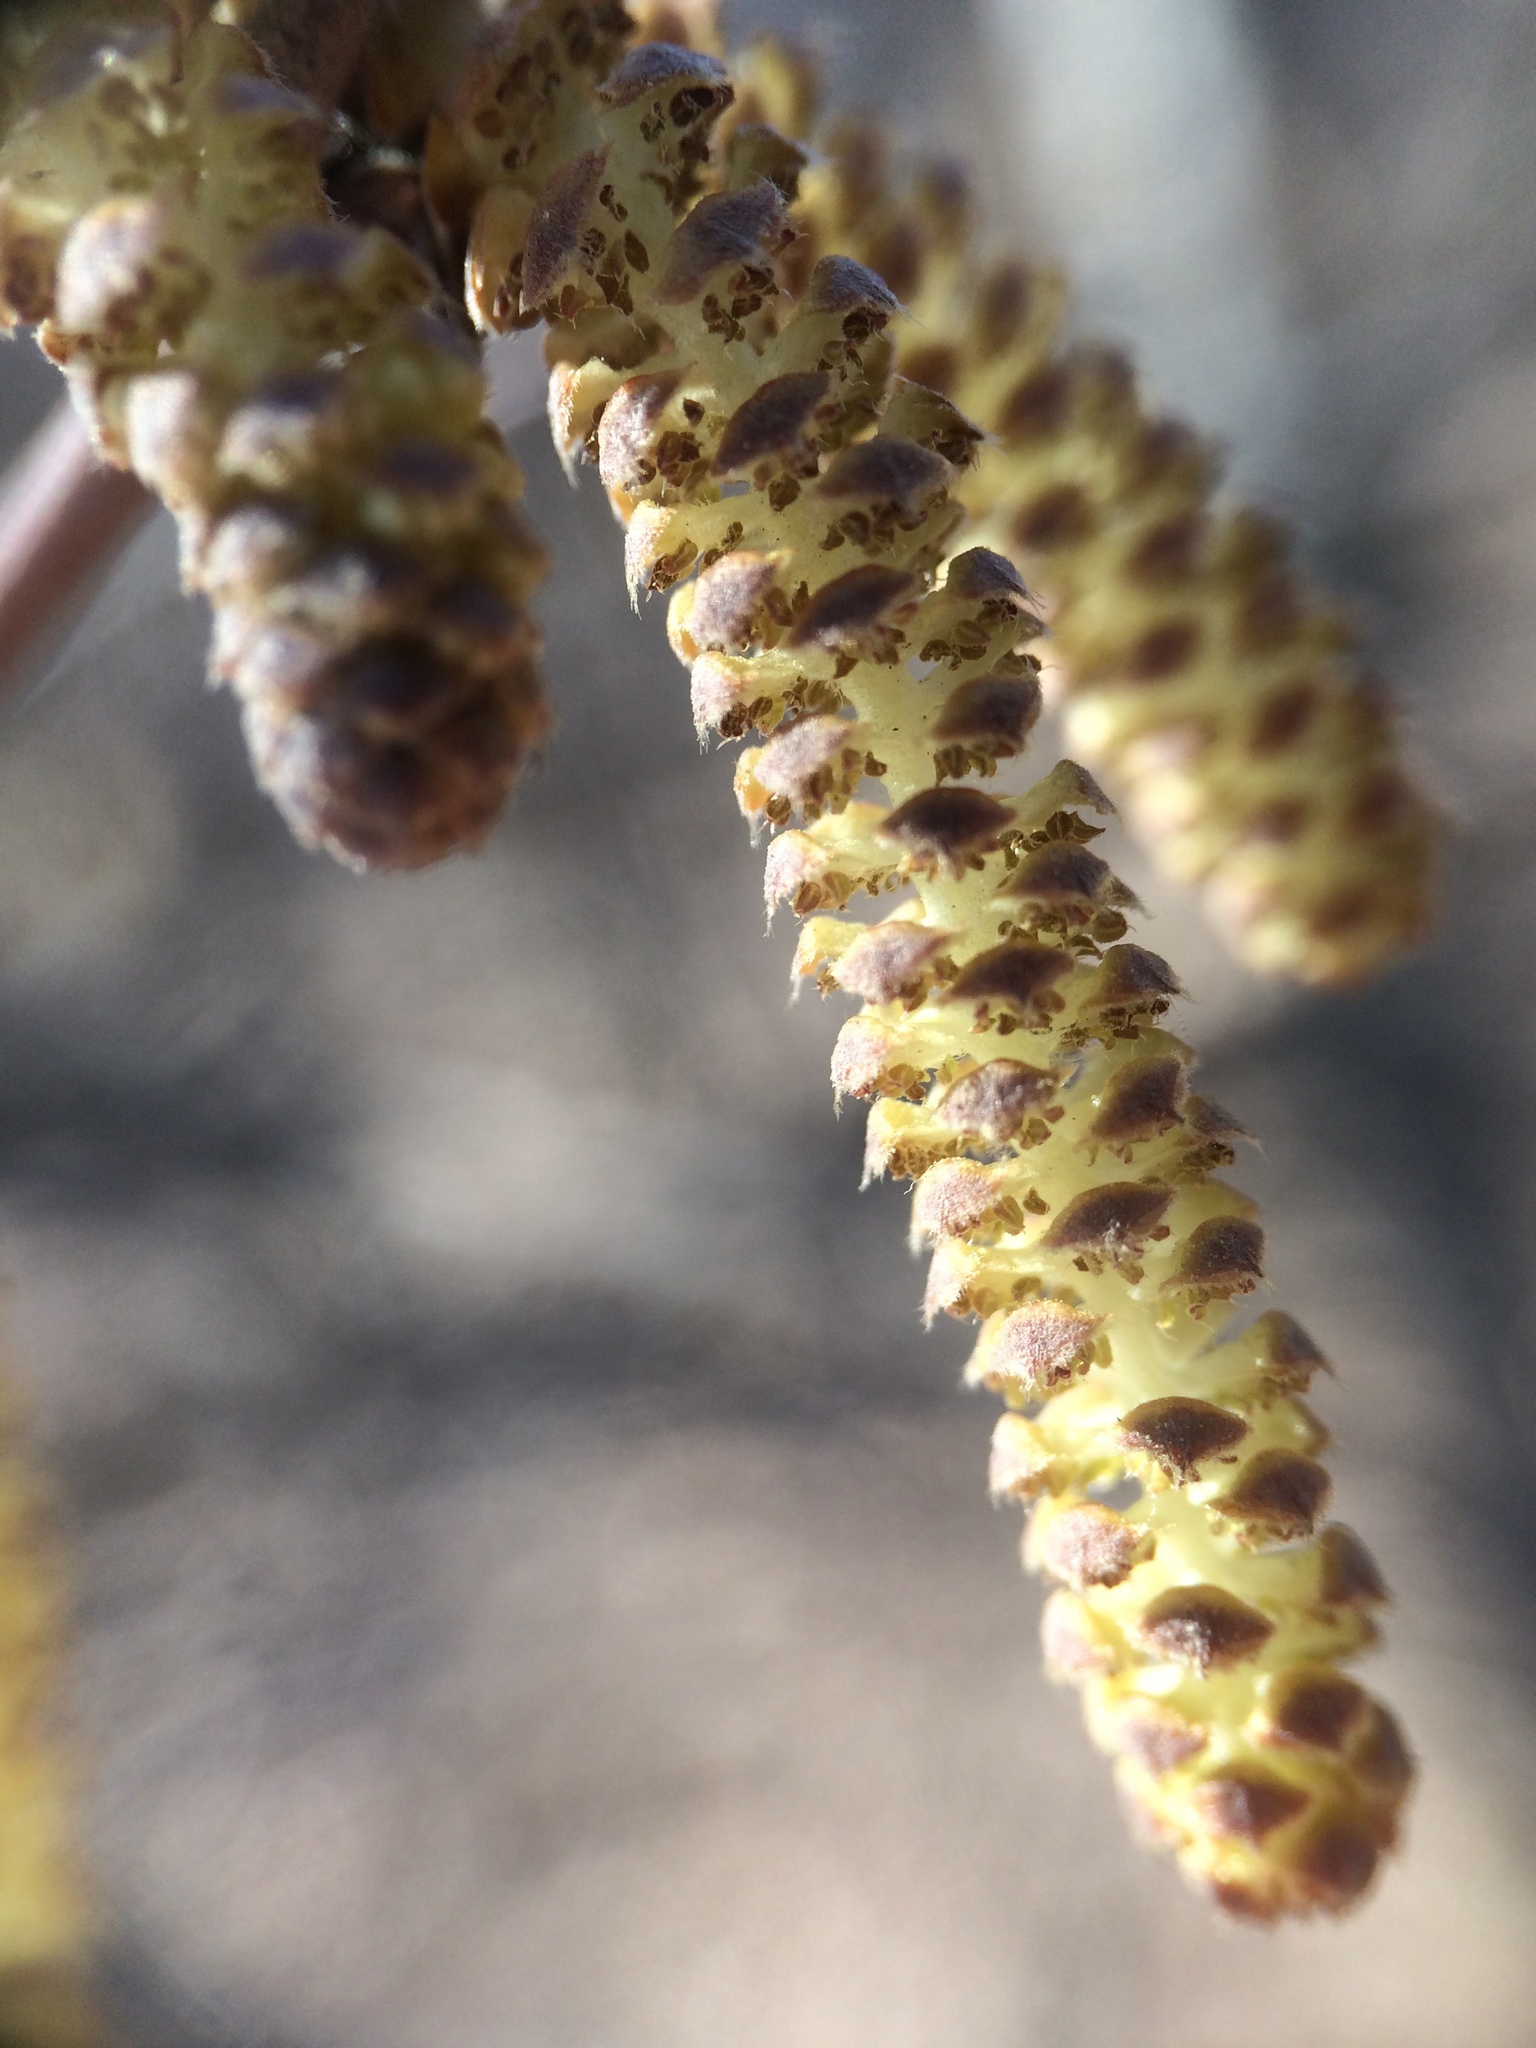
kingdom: Plantae
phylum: Tracheophyta
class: Magnoliopsida
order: Fagales
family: Betulaceae
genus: Corylus
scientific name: Corylus cornuta
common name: Beaked hazel
